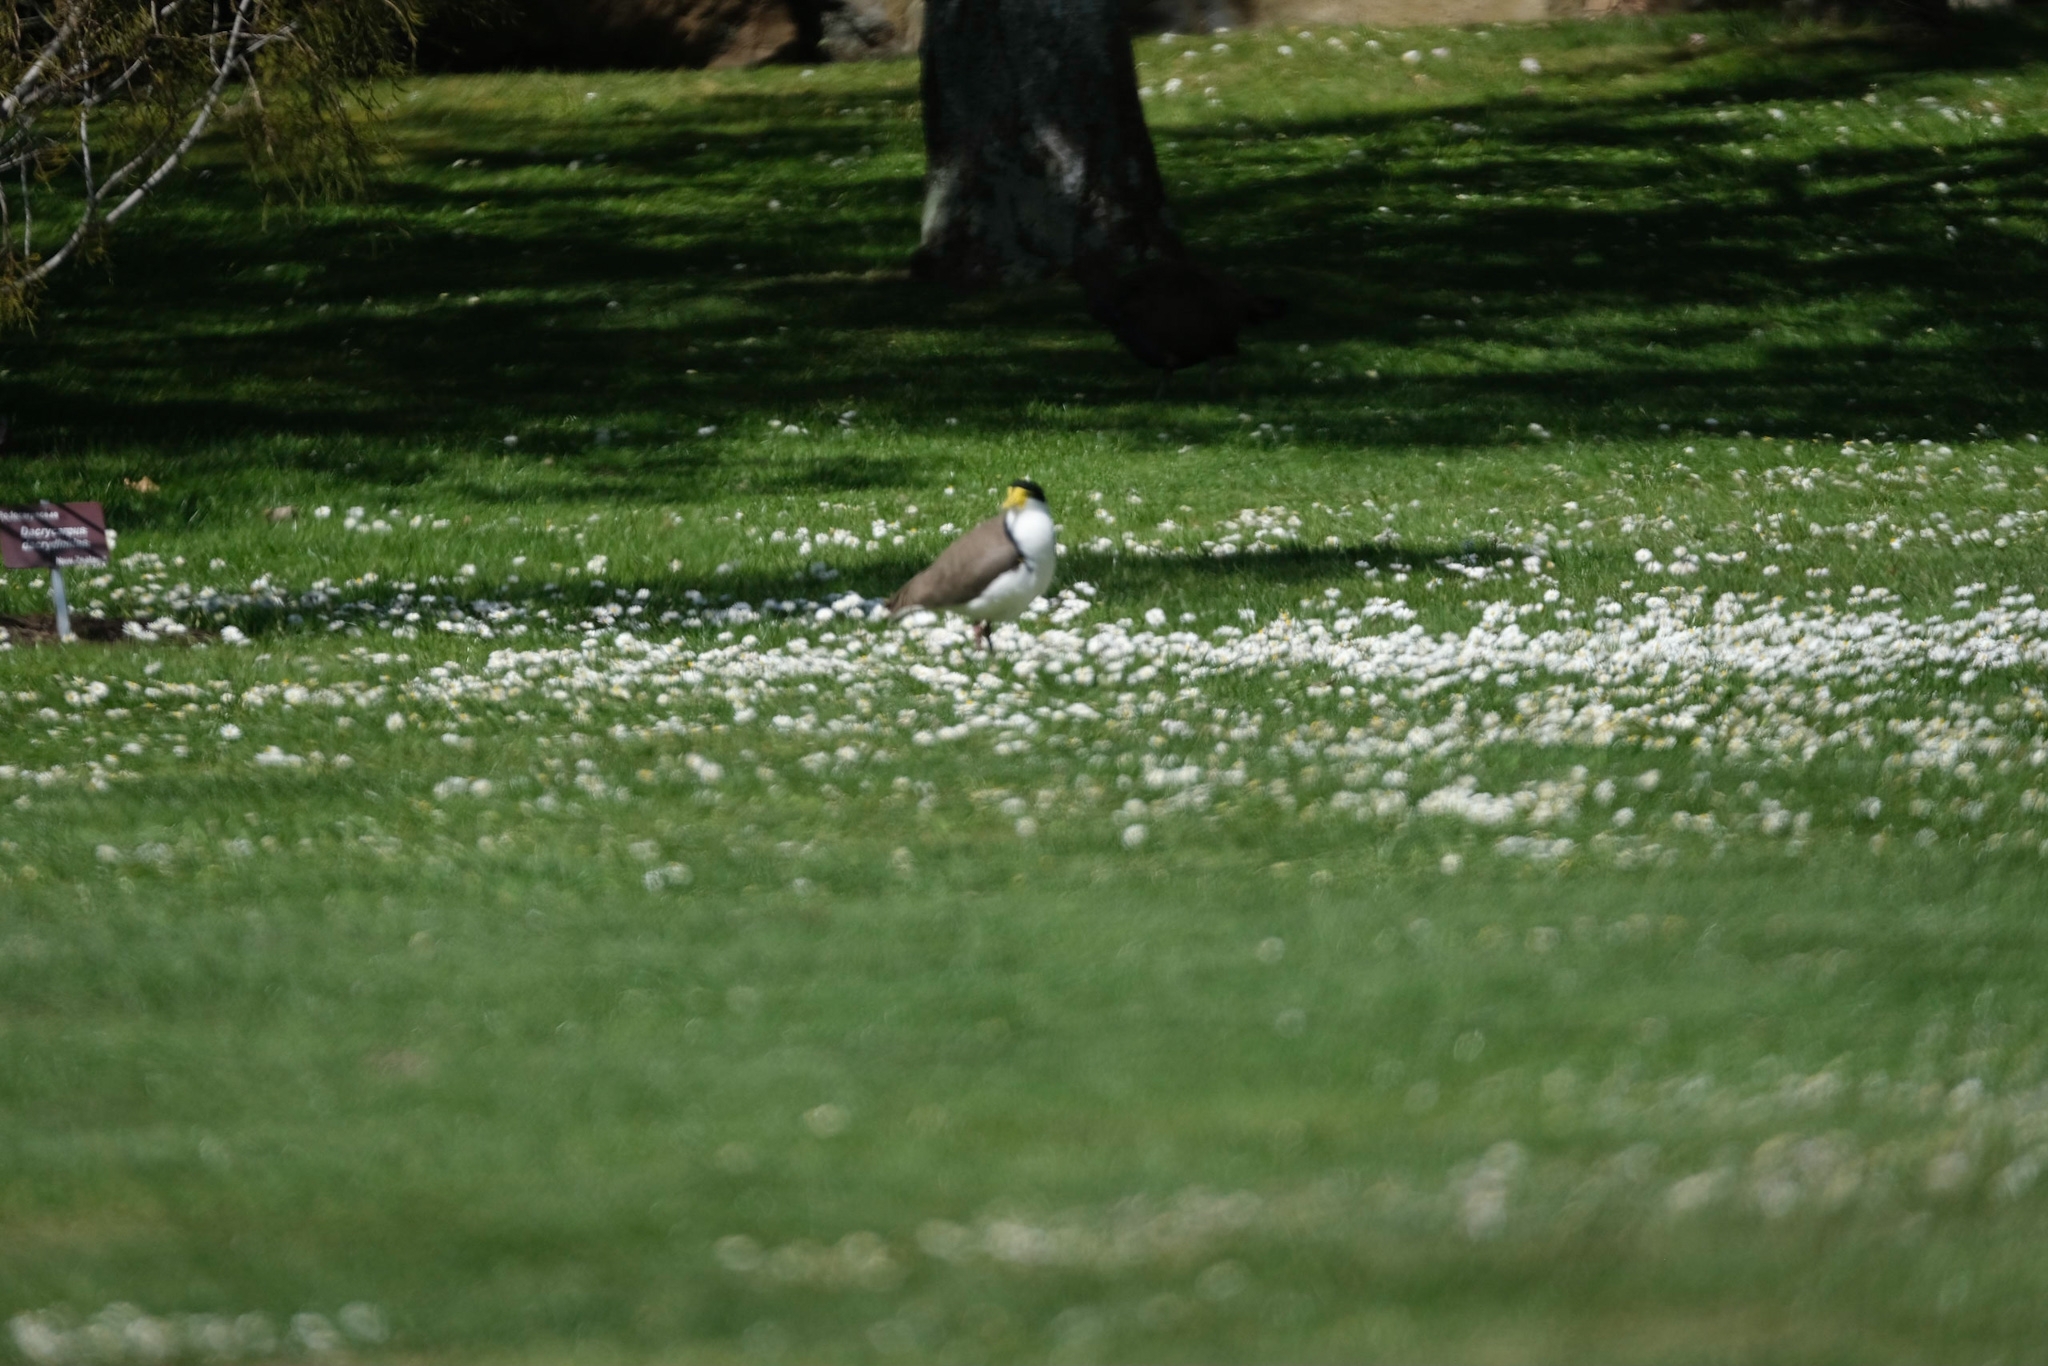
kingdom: Animalia
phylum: Chordata
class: Aves
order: Charadriiformes
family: Charadriidae
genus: Vanellus
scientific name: Vanellus miles
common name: Masked lapwing
